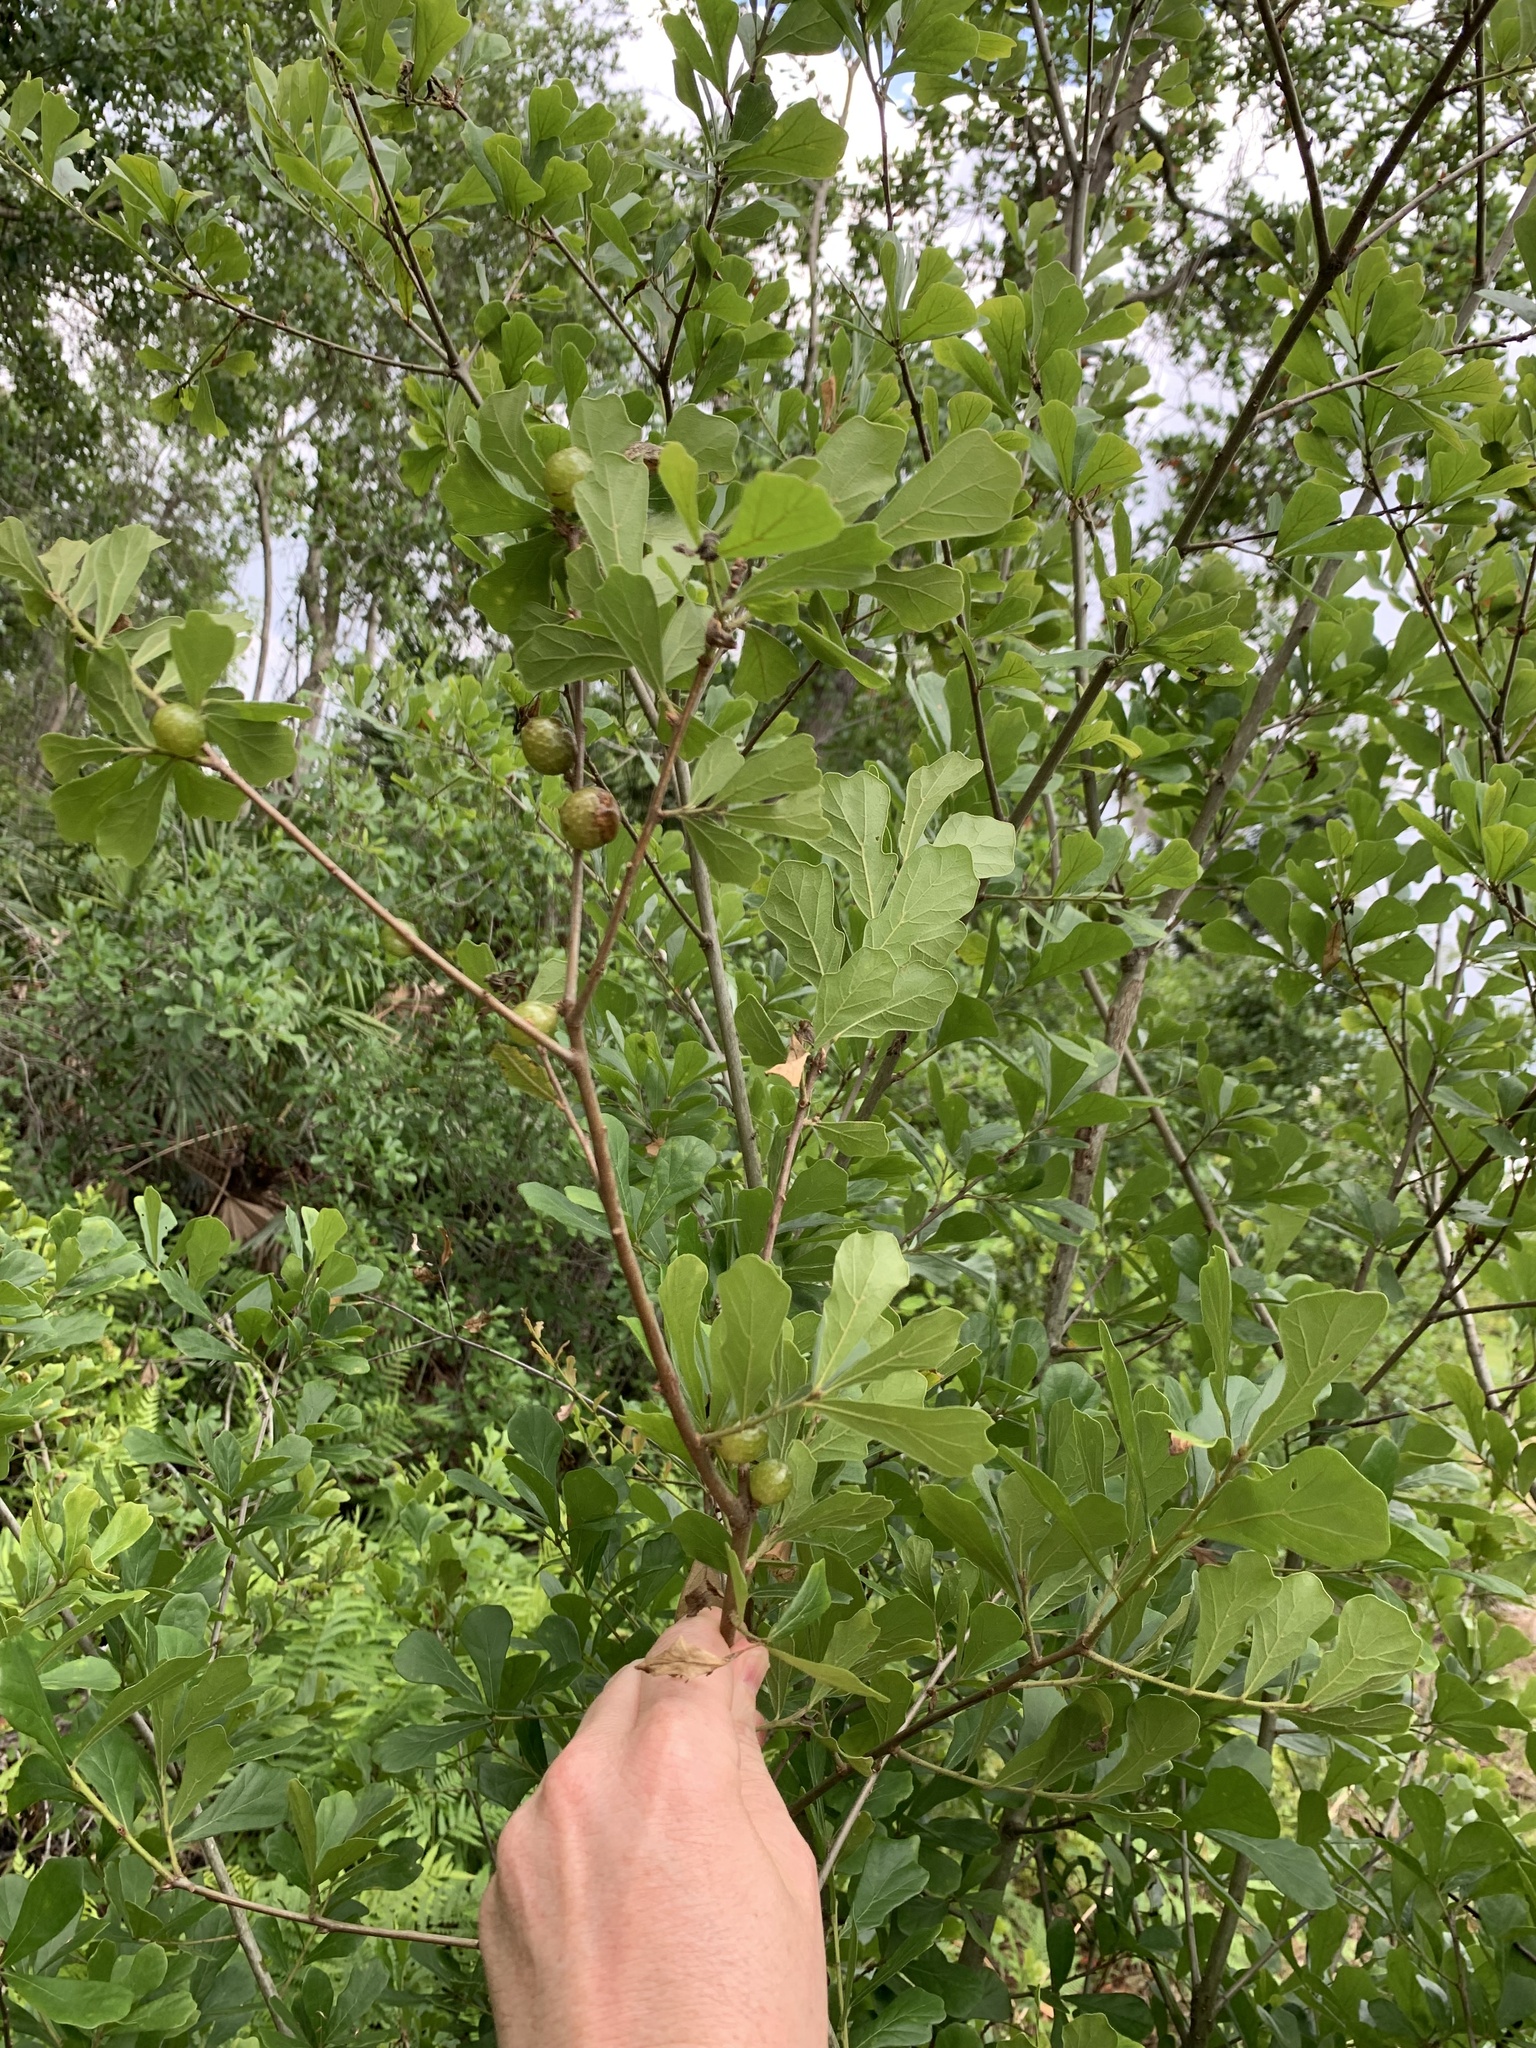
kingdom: Plantae
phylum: Tracheophyta
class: Magnoliopsida
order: Fagales
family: Fagaceae
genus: Quercus
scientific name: Quercus nigra
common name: Water oak
